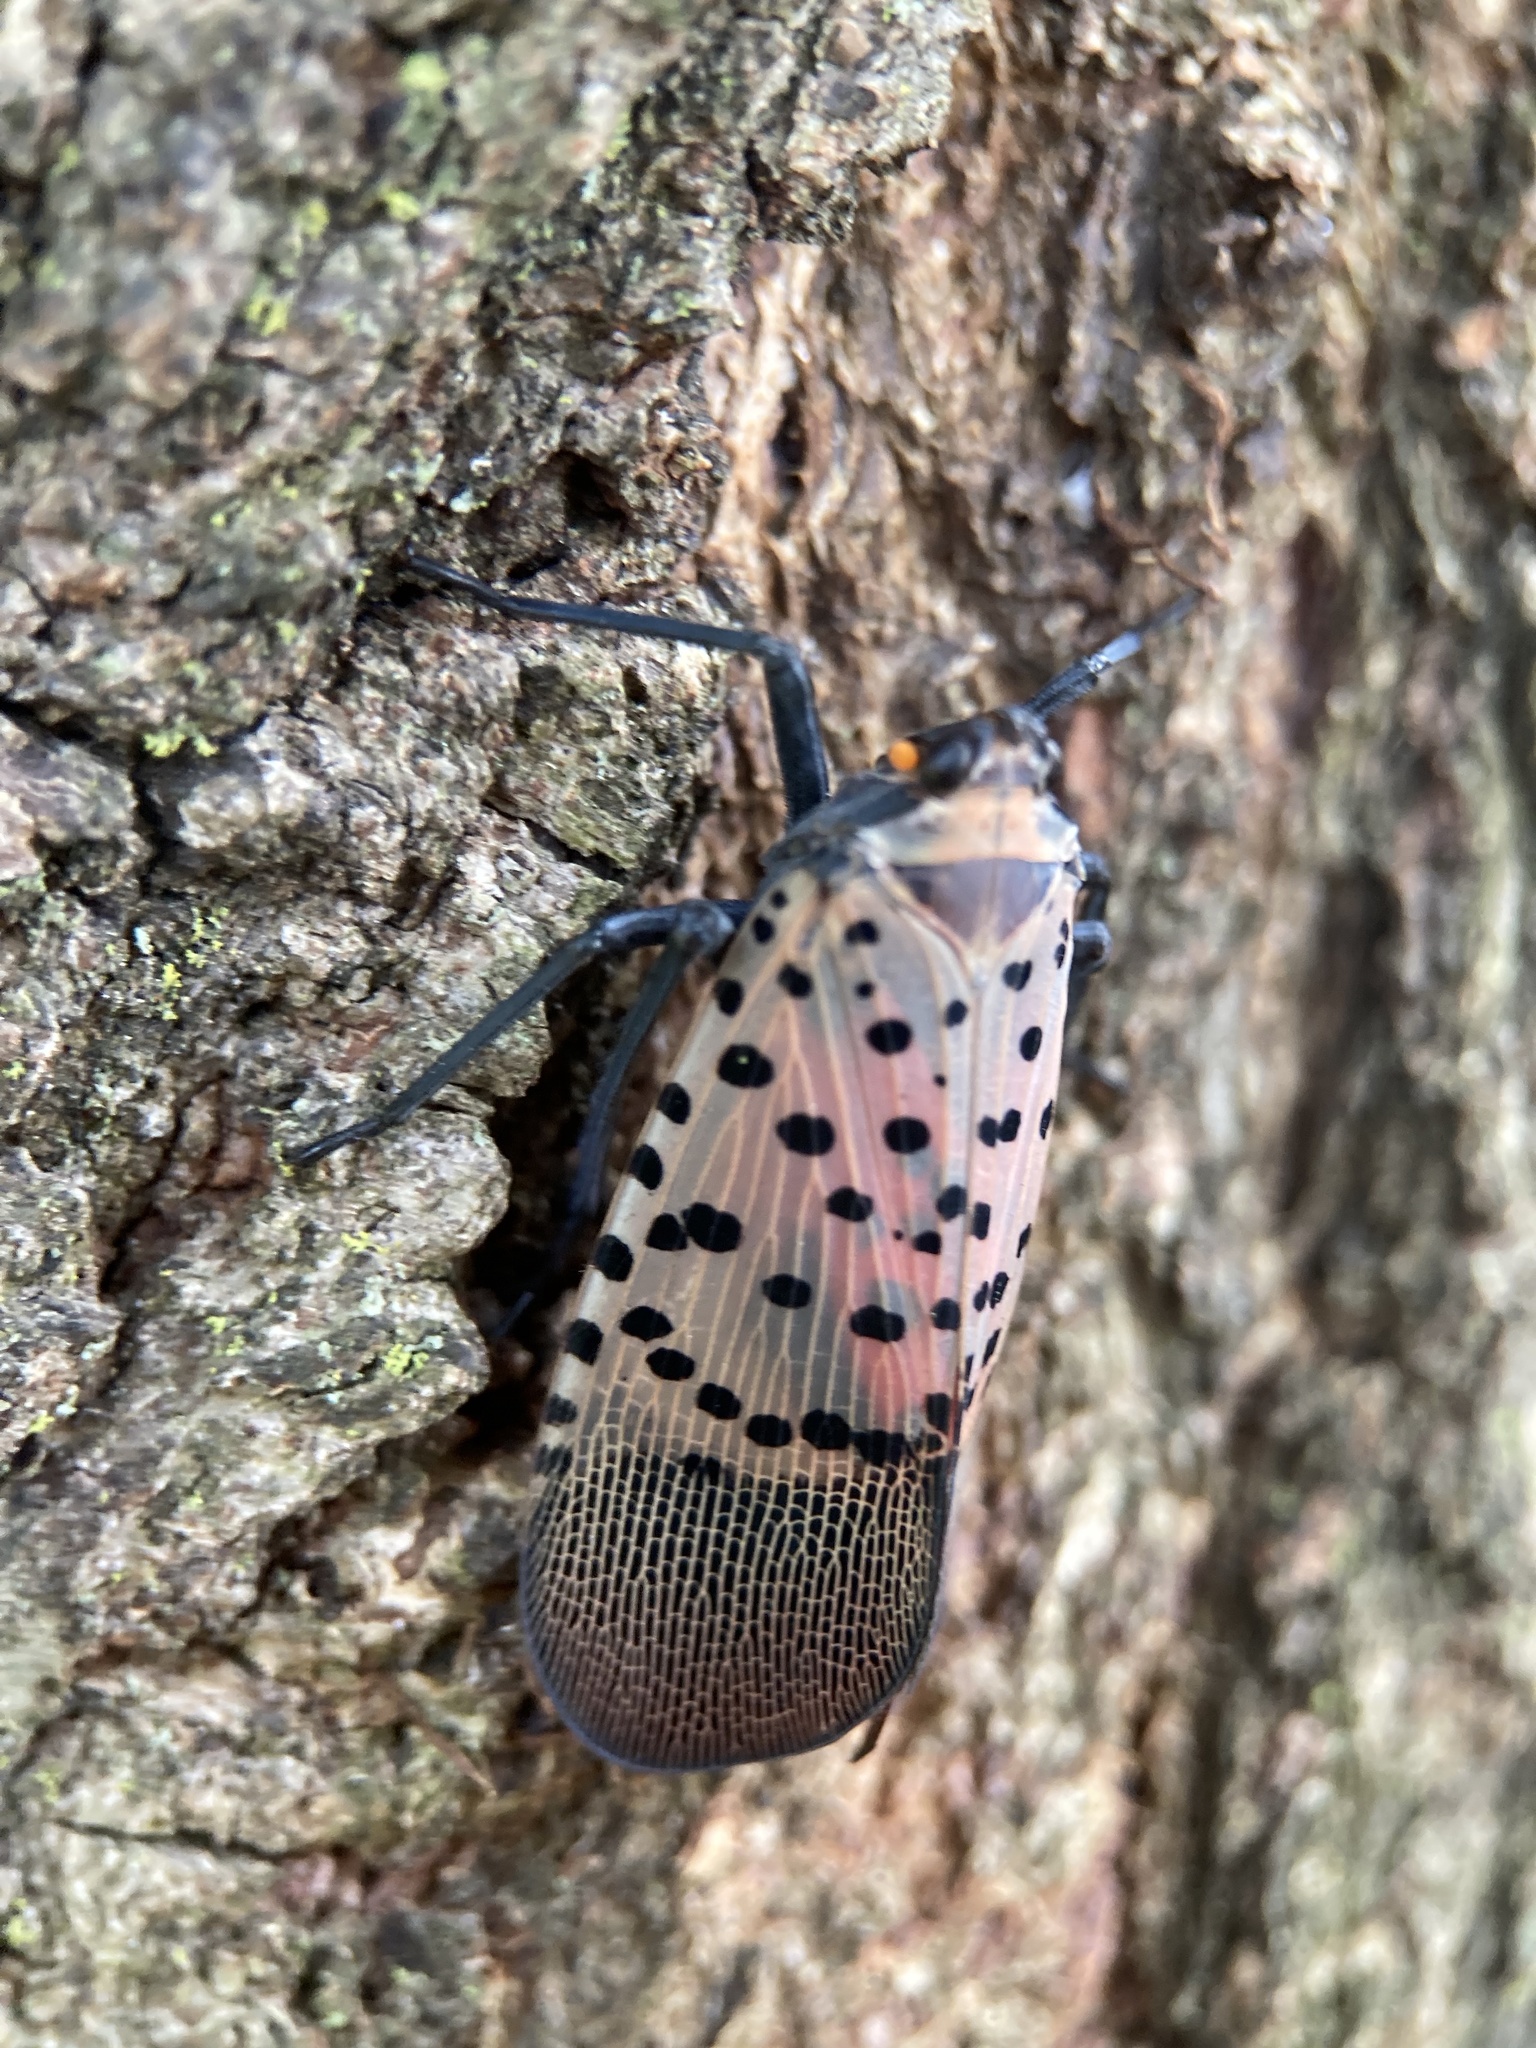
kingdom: Animalia
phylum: Arthropoda
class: Insecta
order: Hemiptera
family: Fulgoridae
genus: Lycorma
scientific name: Lycorma delicatula
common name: Spotted lanternfly
